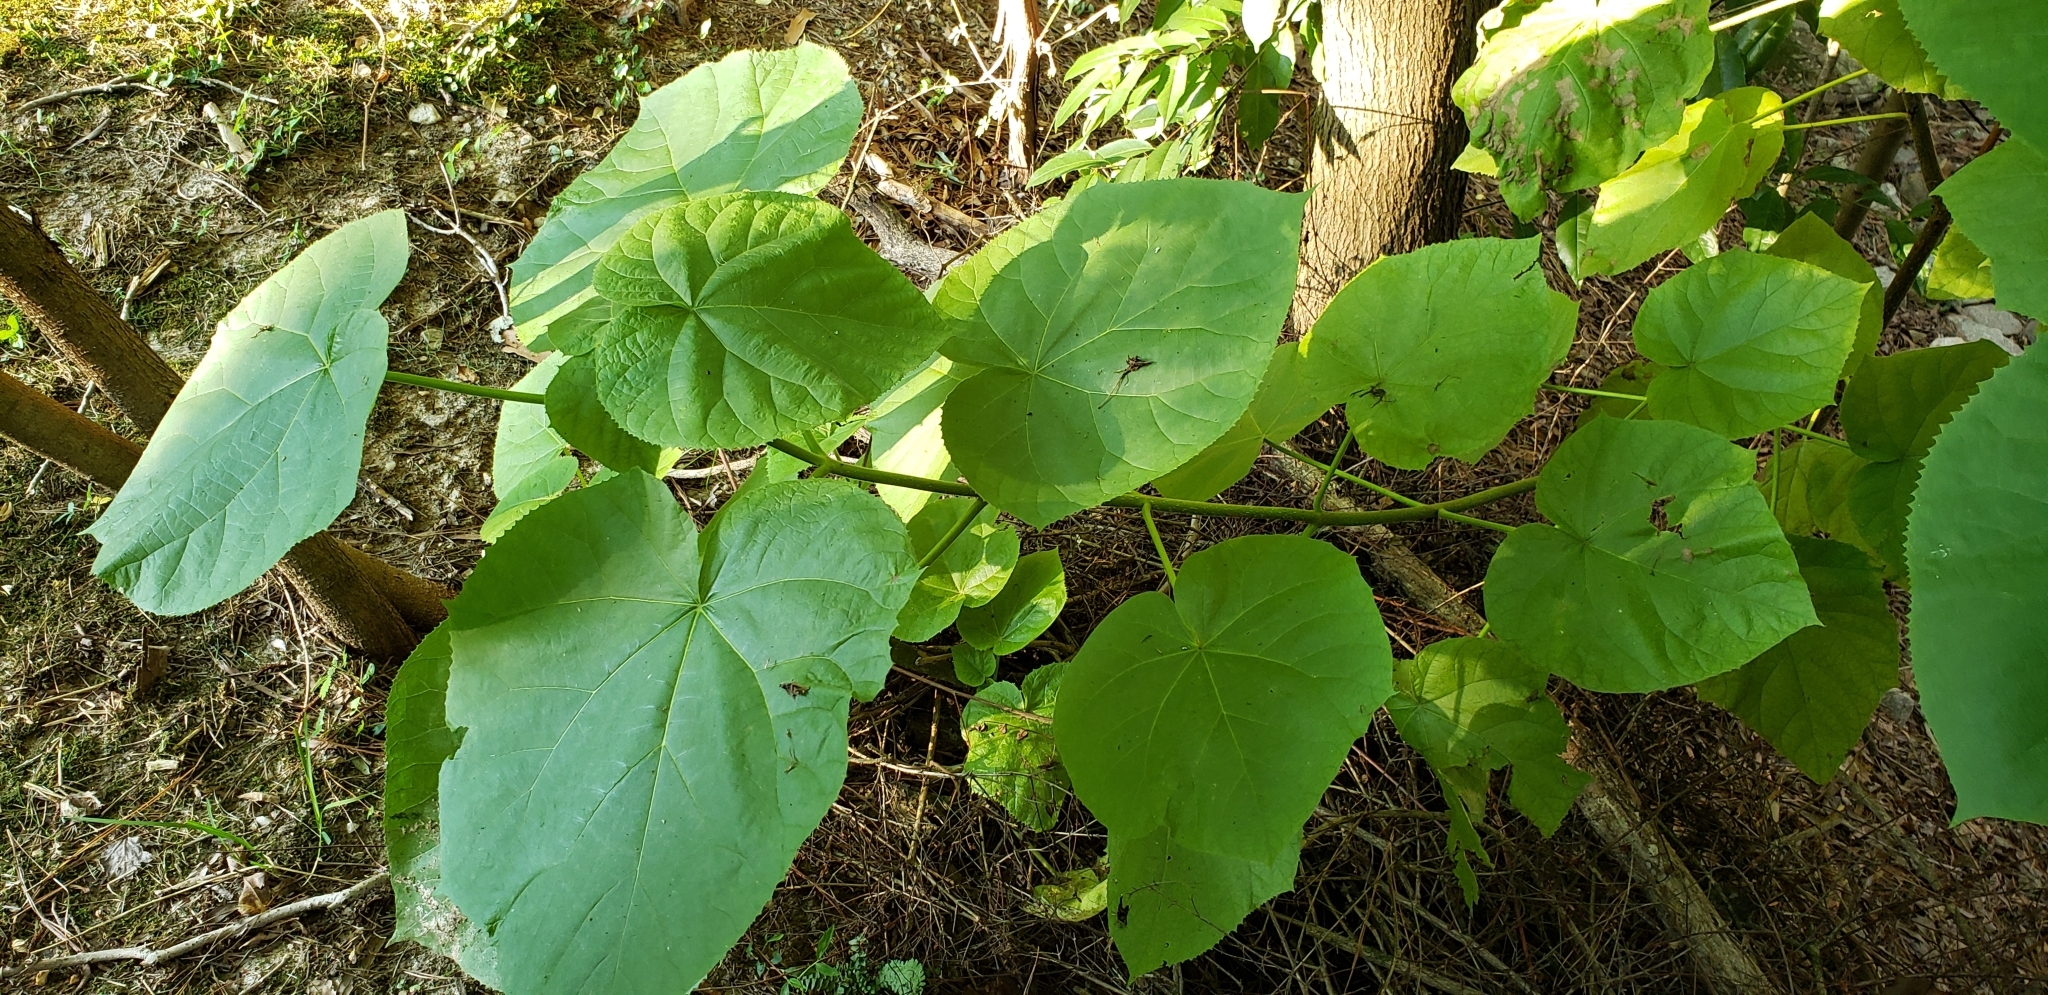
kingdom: Plantae
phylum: Tracheophyta
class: Magnoliopsida
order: Lamiales
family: Paulowniaceae
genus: Paulownia
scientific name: Paulownia tomentosa
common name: Foxglove-tree
